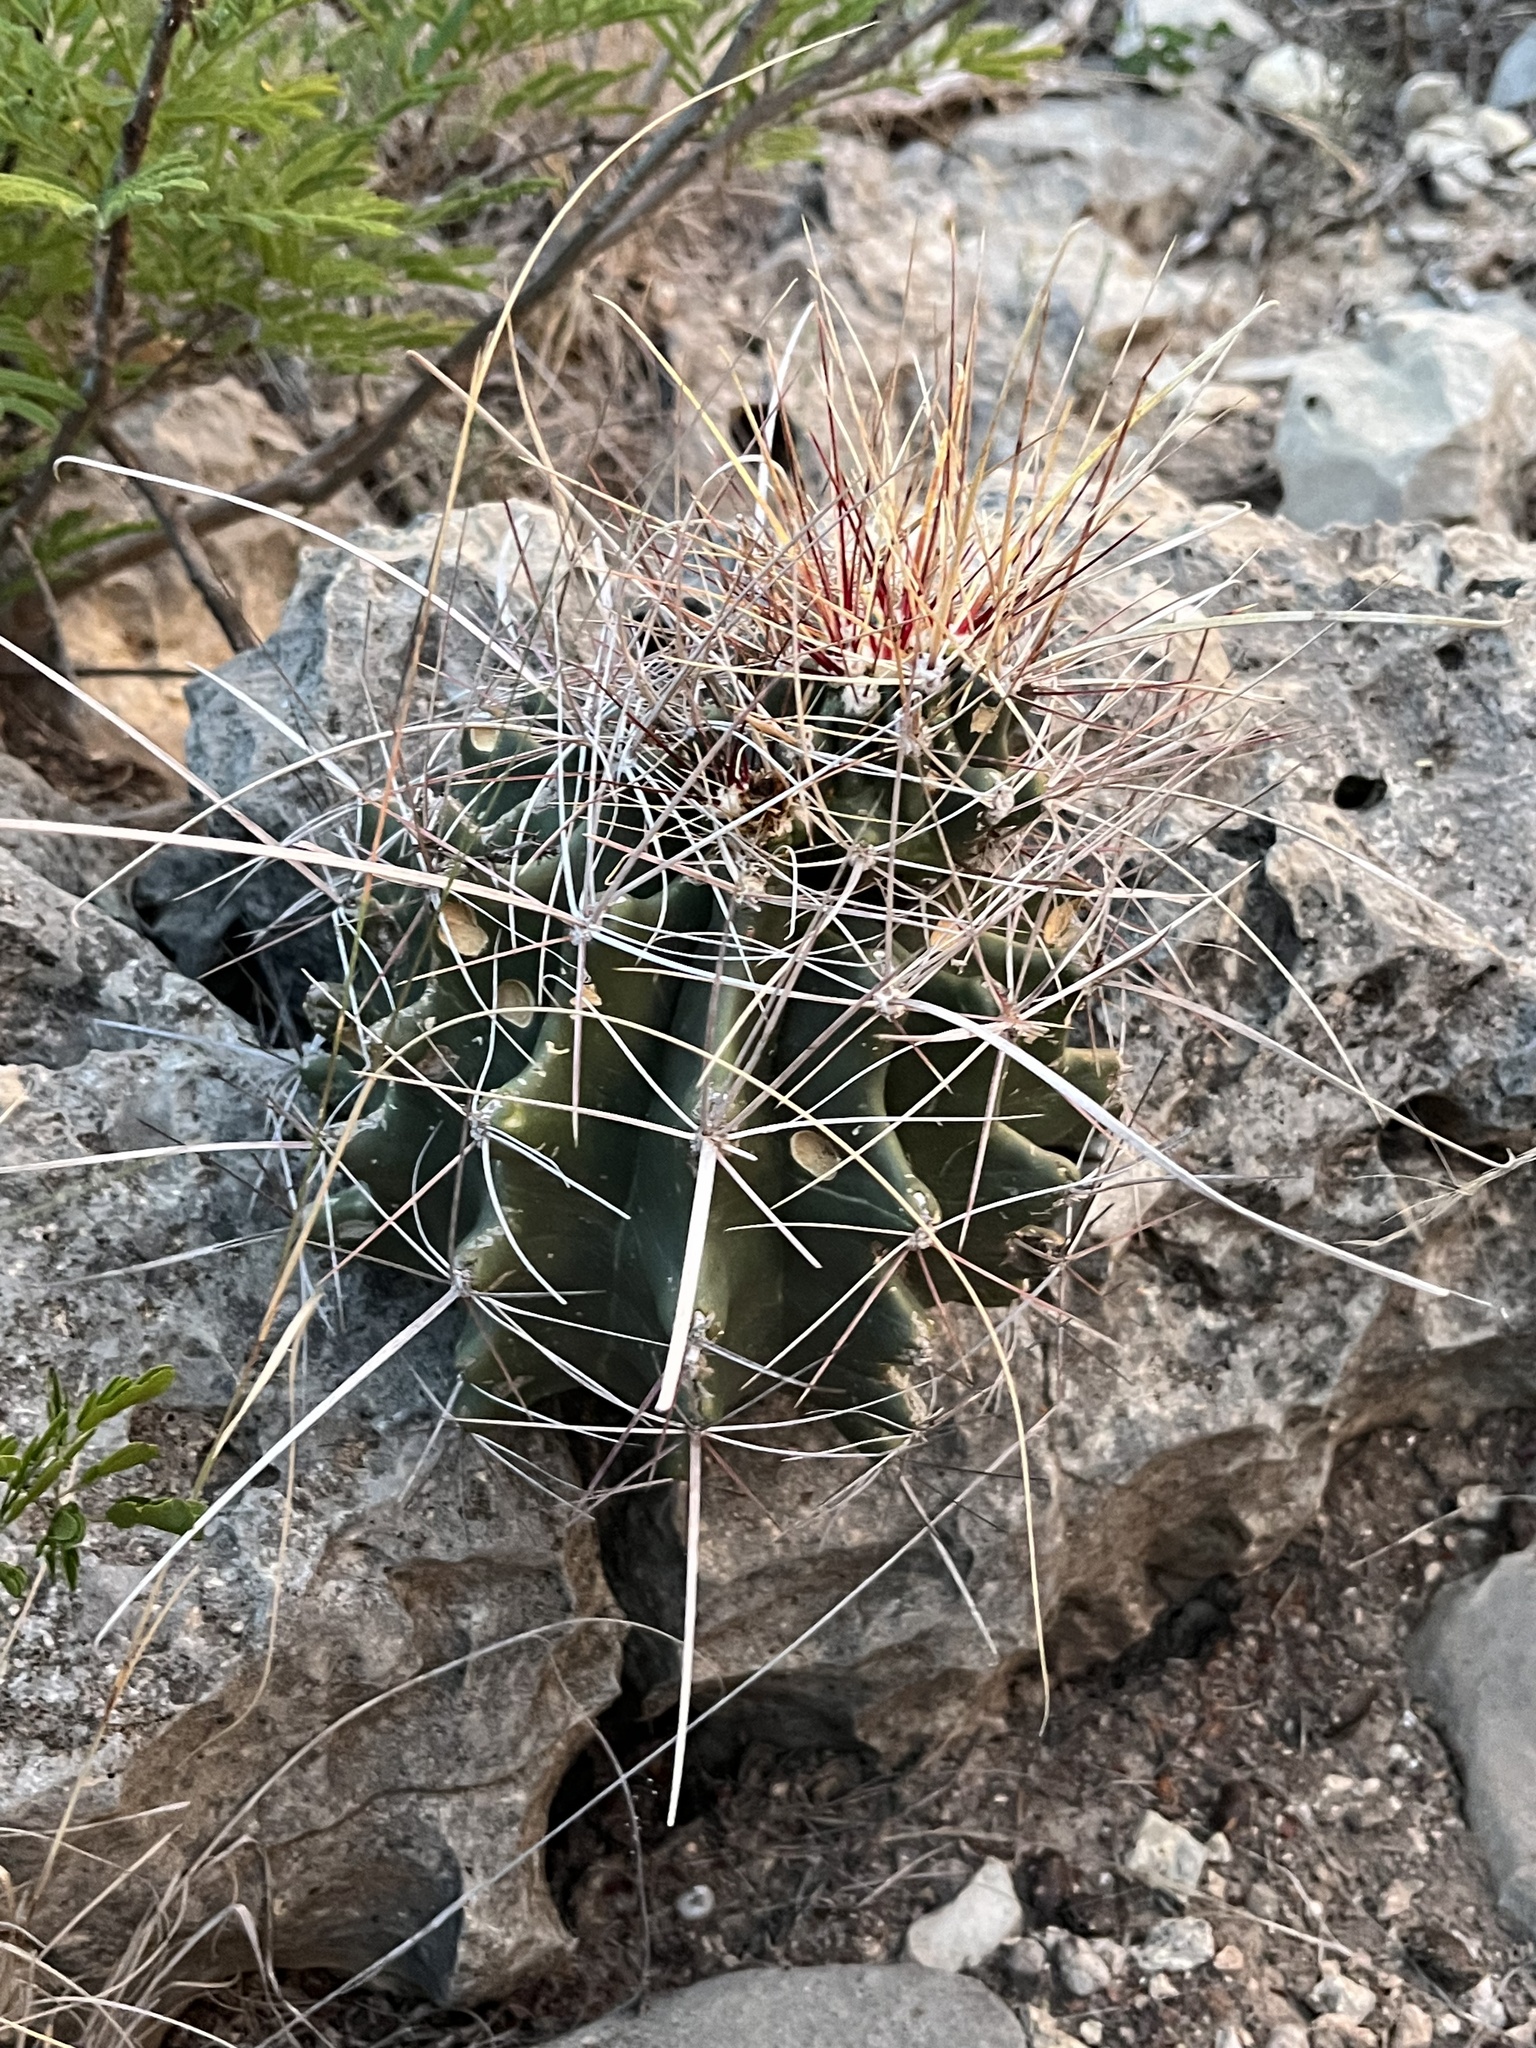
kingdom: Plantae
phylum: Tracheophyta
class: Magnoliopsida
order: Caryophyllales
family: Cactaceae
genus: Bisnaga
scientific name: Bisnaga hamatacantha
